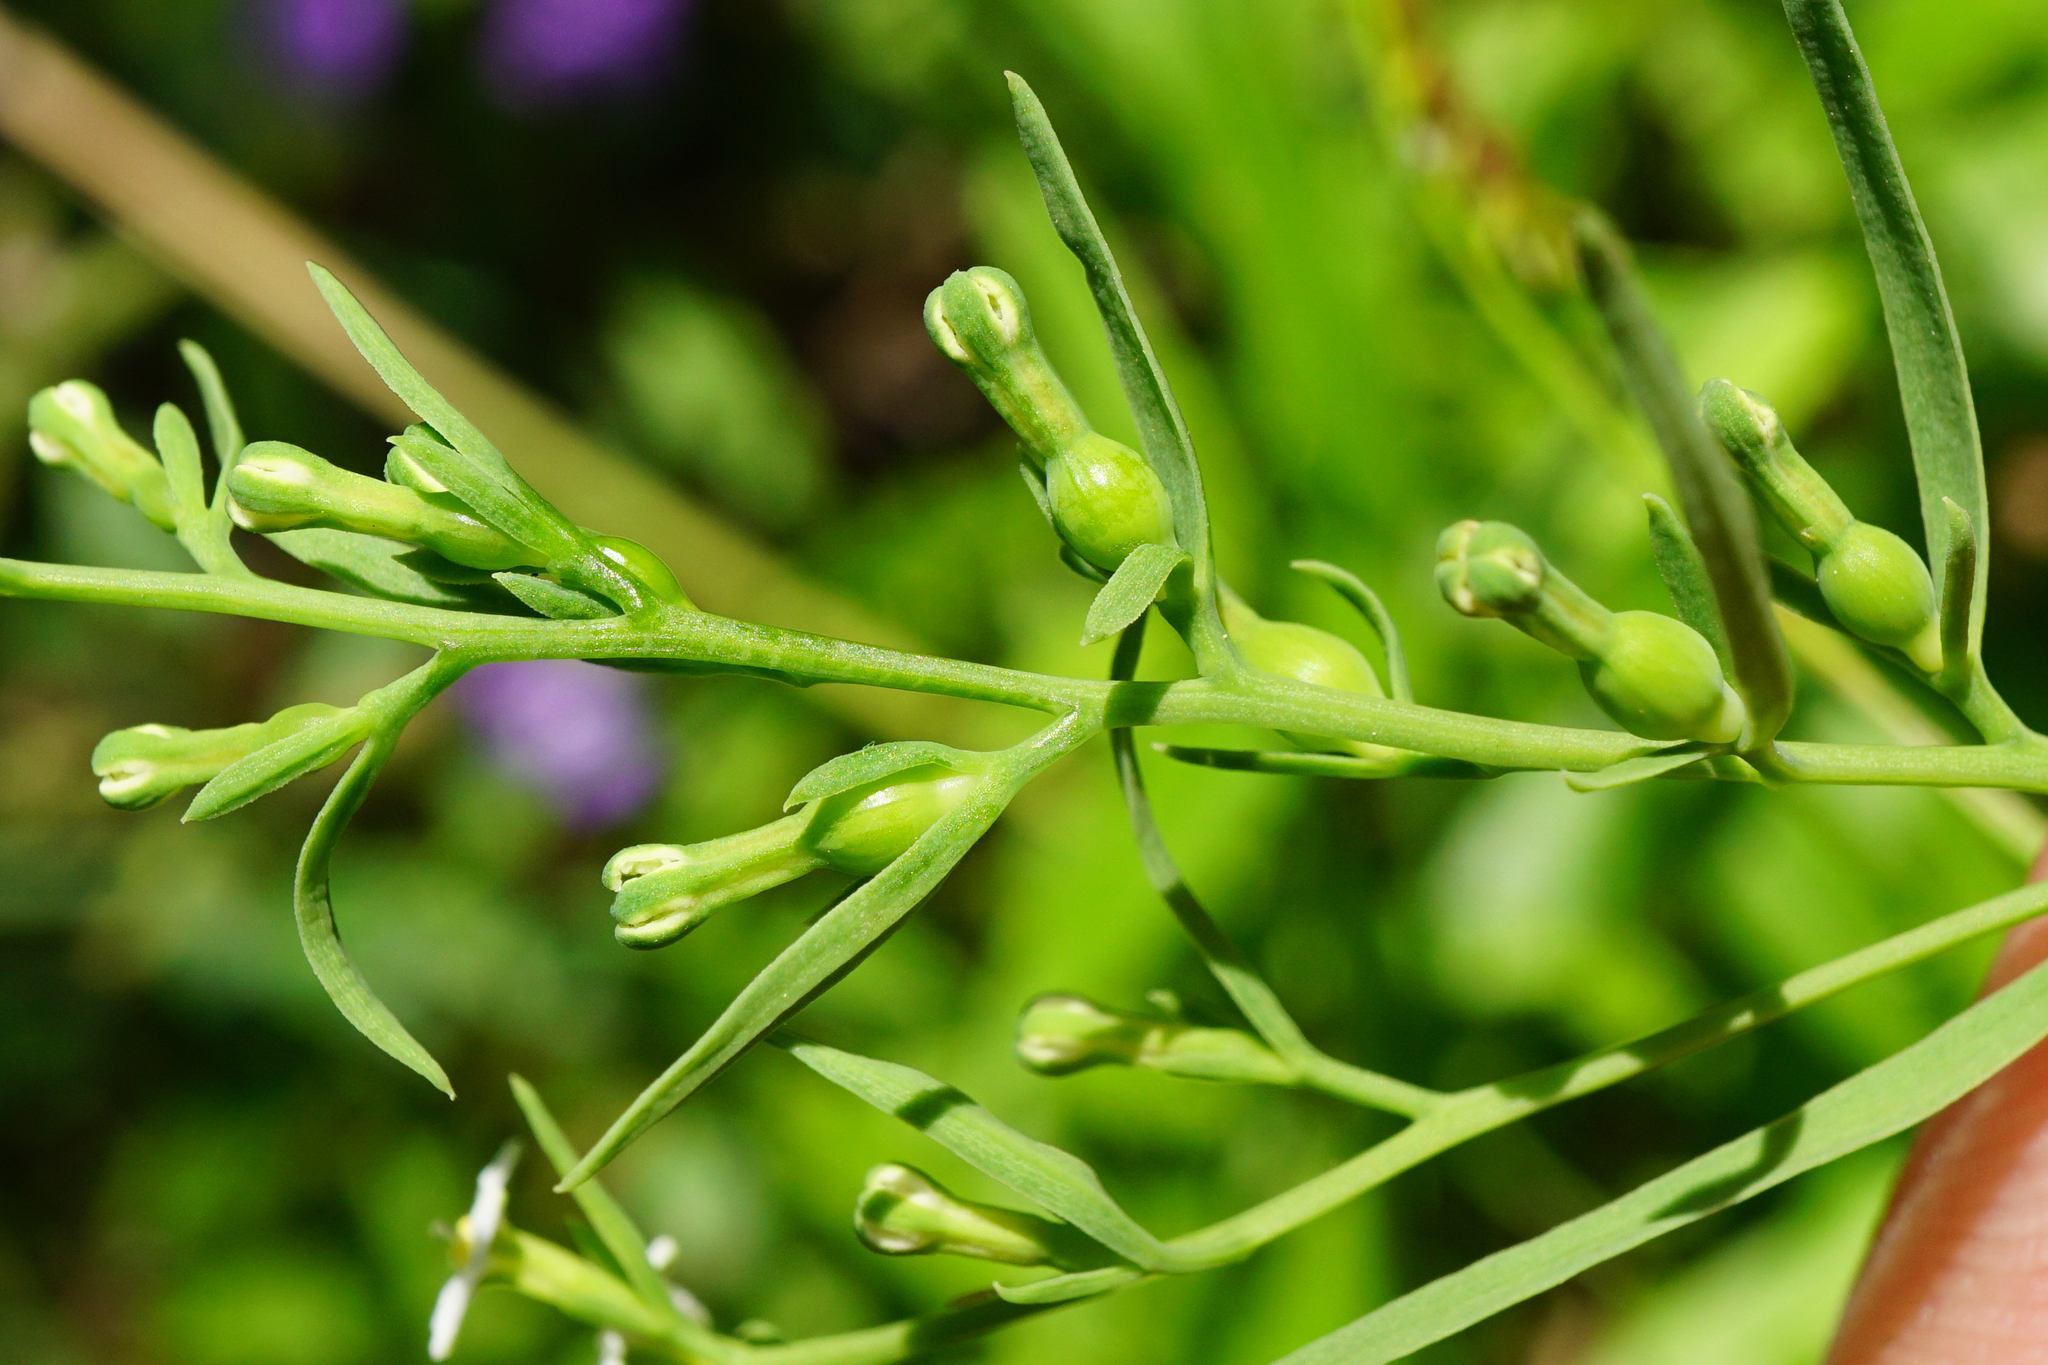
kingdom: Plantae
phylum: Tracheophyta
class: Magnoliopsida
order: Santalales
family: Thesiaceae
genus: Thesium
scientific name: Thesium alpinum
